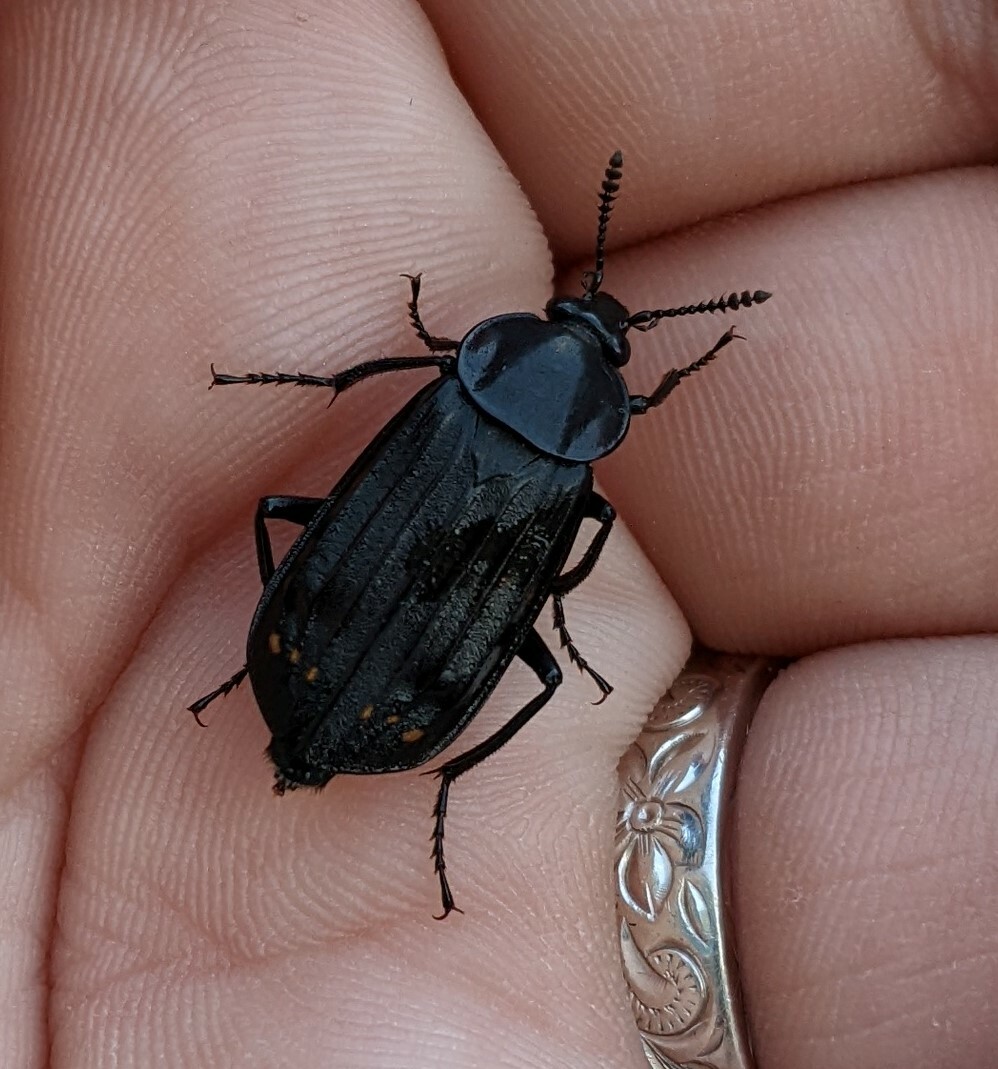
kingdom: Animalia
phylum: Arthropoda
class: Insecta
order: Coleoptera
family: Staphylinidae
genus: Necrodes
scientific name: Necrodes surinamensis
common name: Red-lined carrion beetle
